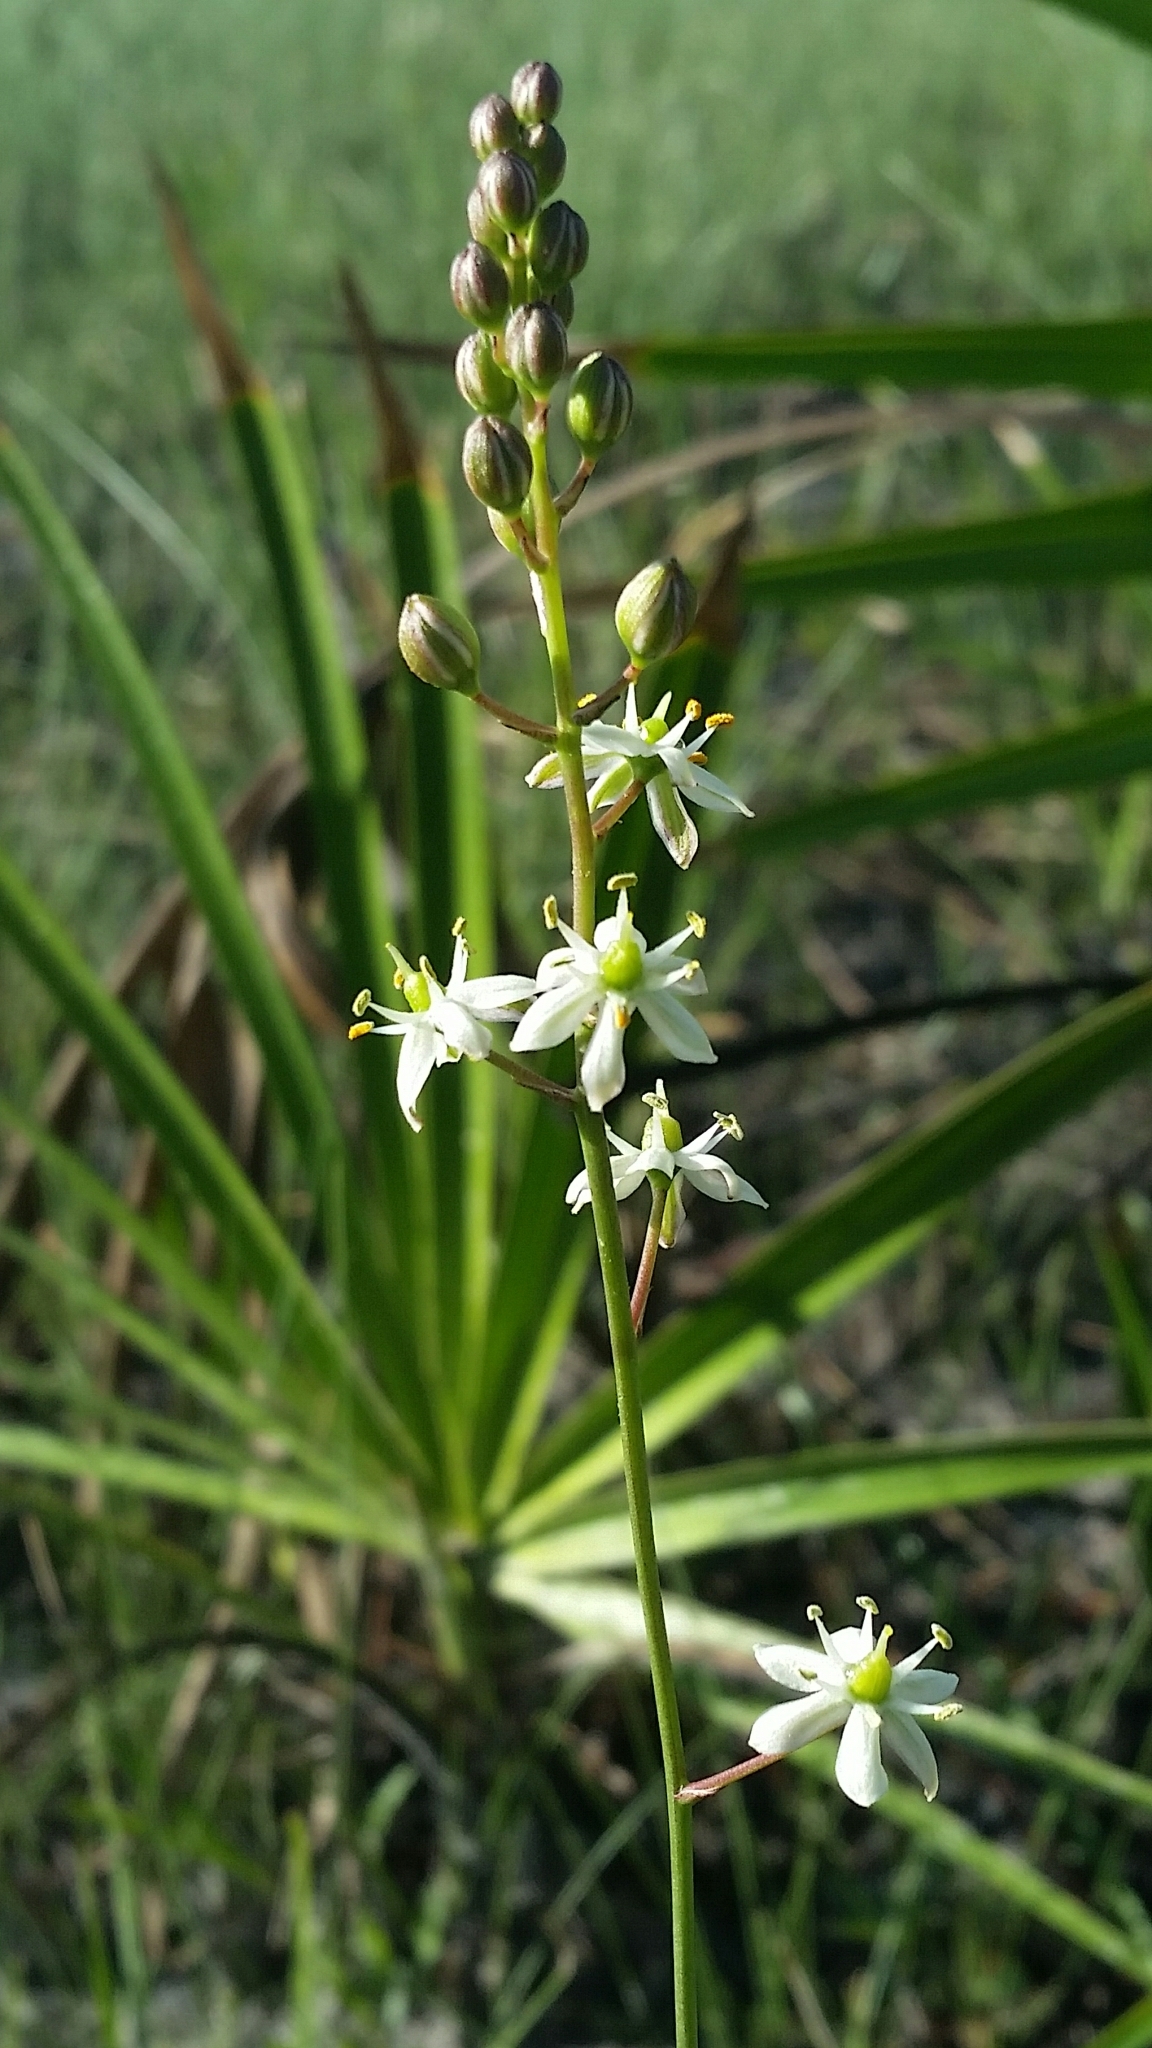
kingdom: Plantae
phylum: Tracheophyta
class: Liliopsida
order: Asparagales
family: Asparagaceae
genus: Schoenolirion
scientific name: Schoenolirion albiflorum
